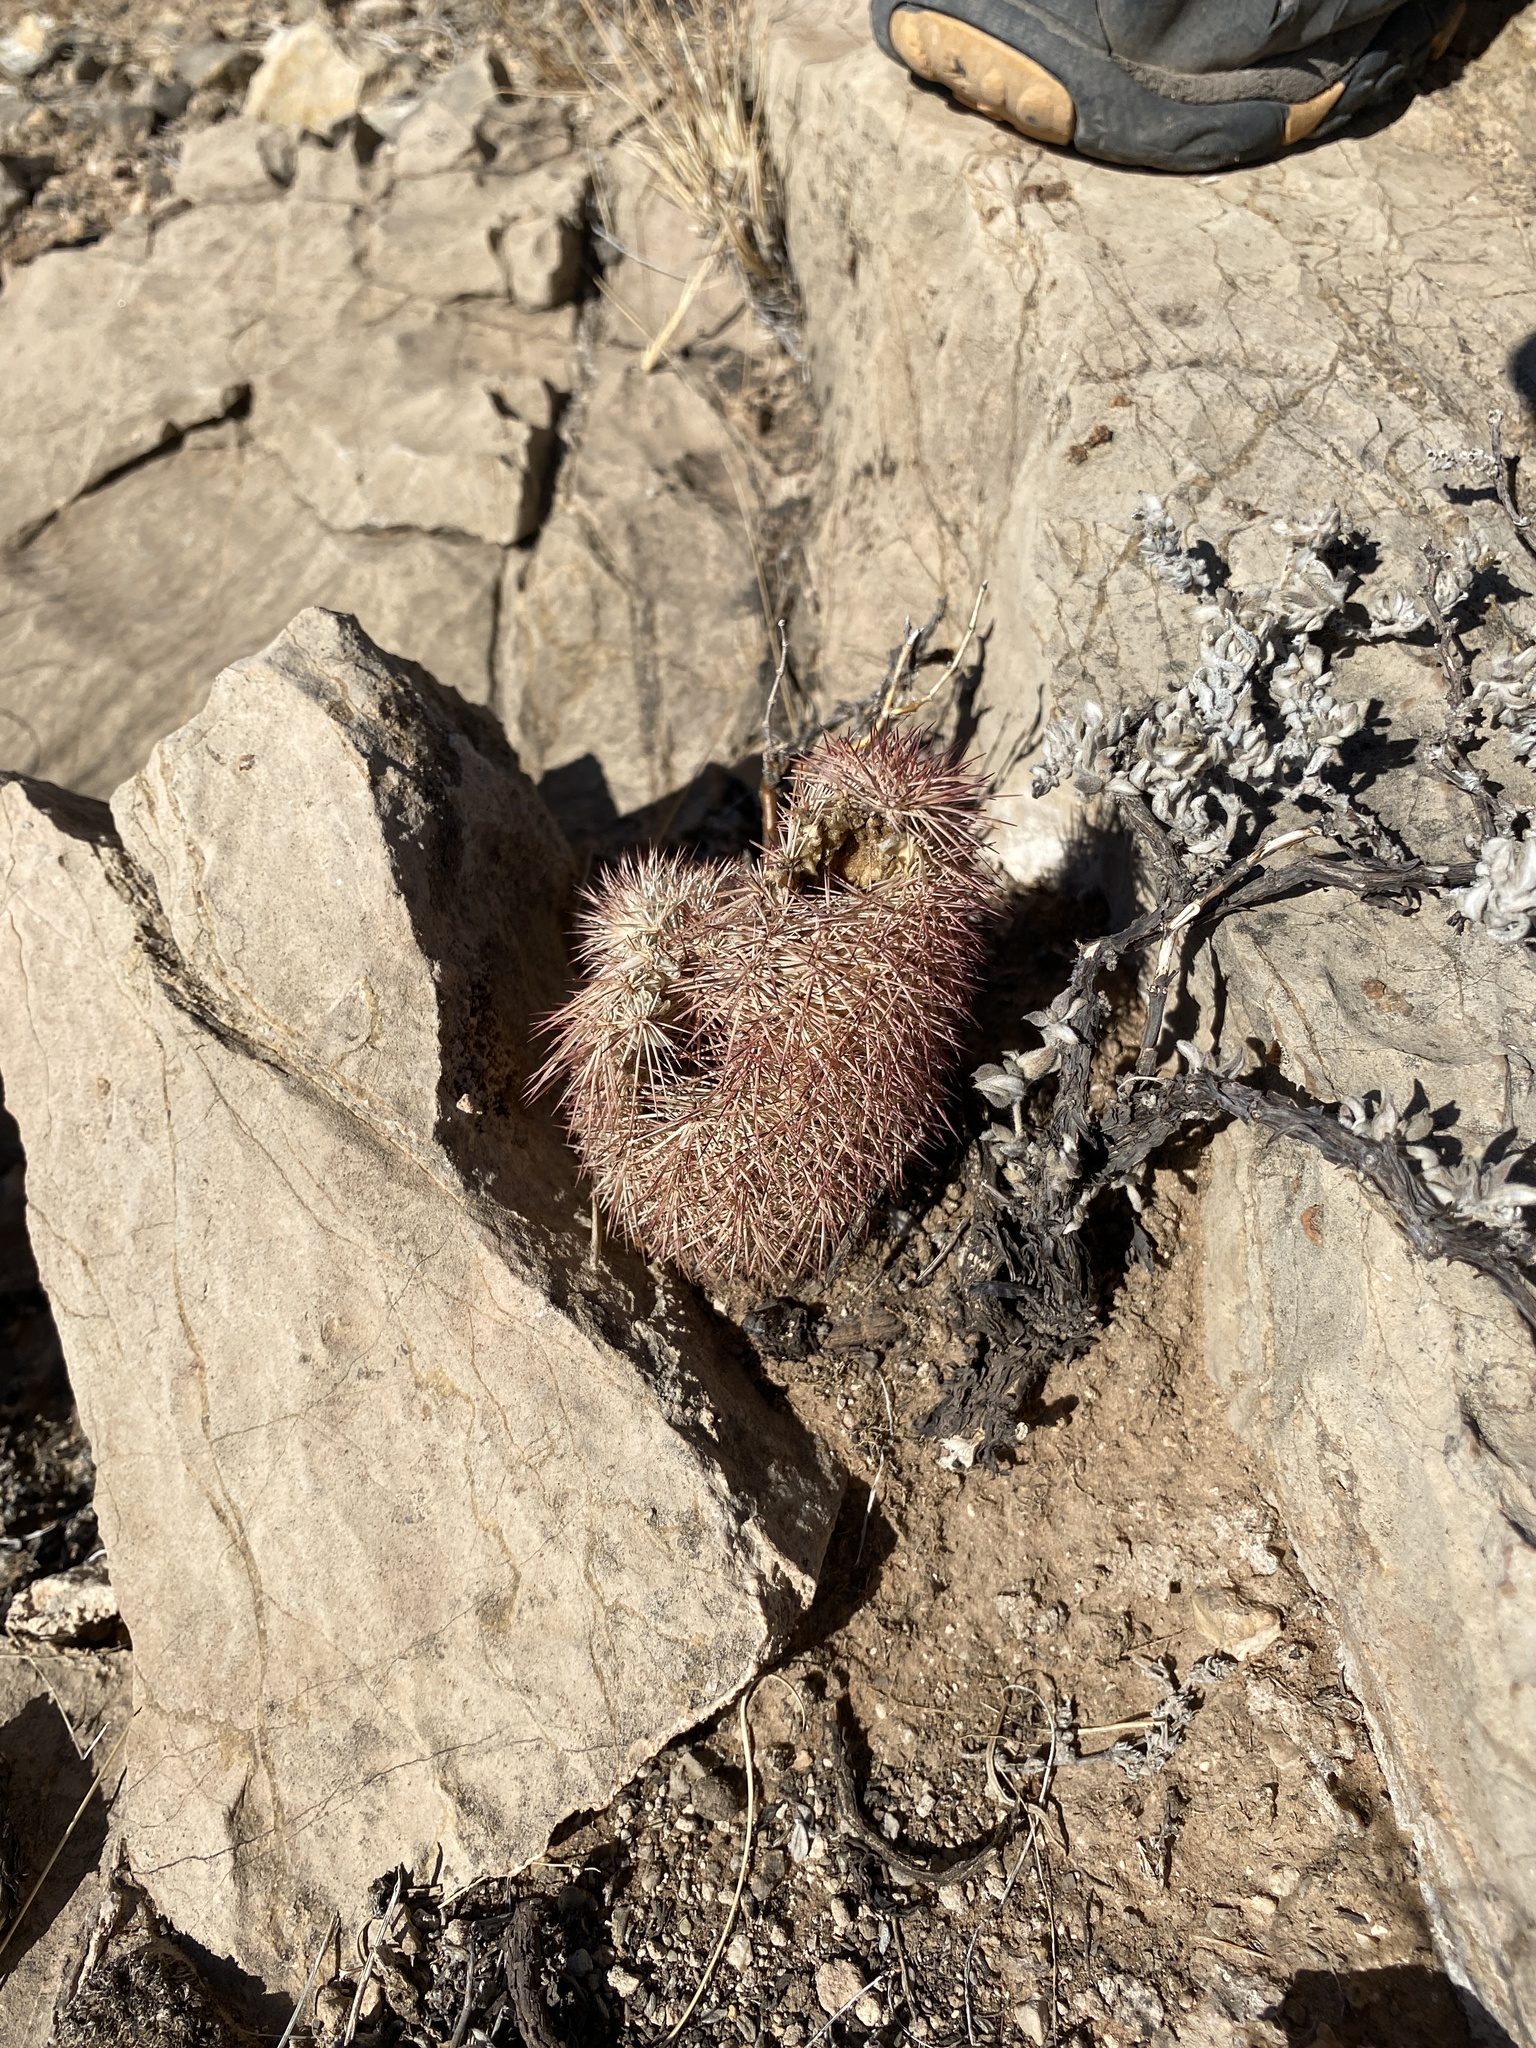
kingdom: Plantae
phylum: Tracheophyta
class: Magnoliopsida
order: Caryophyllales
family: Cactaceae
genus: Echinocereus
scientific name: Echinocereus dasyacanthus
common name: Spiny hedgehog cactus
